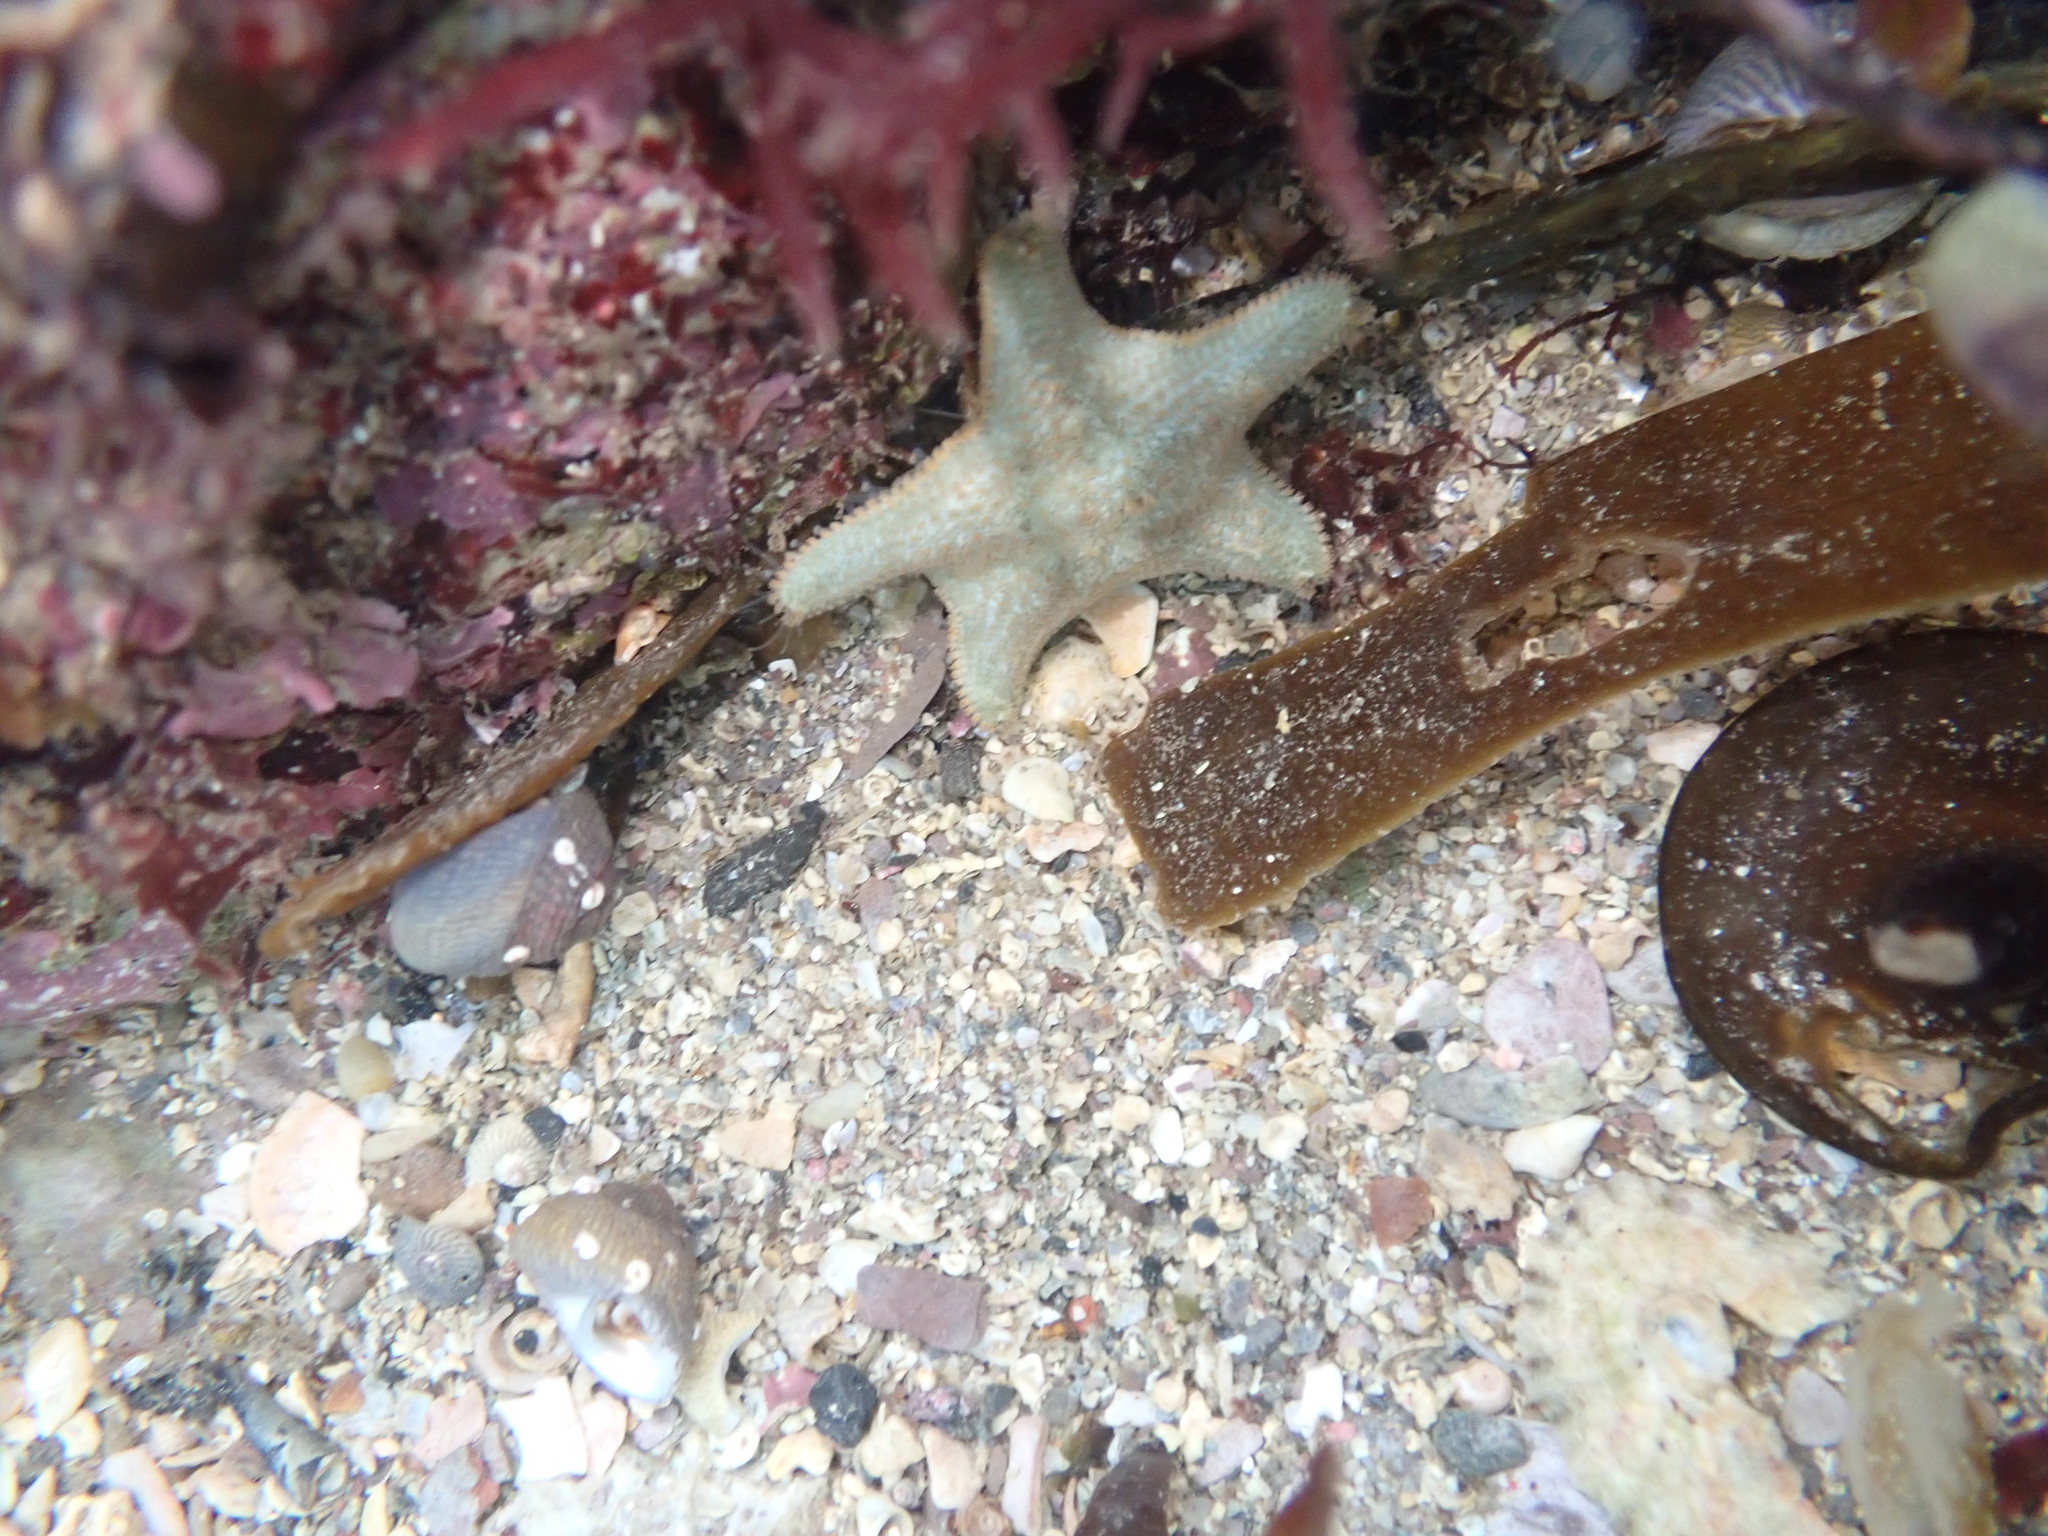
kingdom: Animalia
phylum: Echinodermata
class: Asteroidea
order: Valvatida
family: Asterinidae
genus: Asterina
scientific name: Asterina gibbosa
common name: Cushion star
